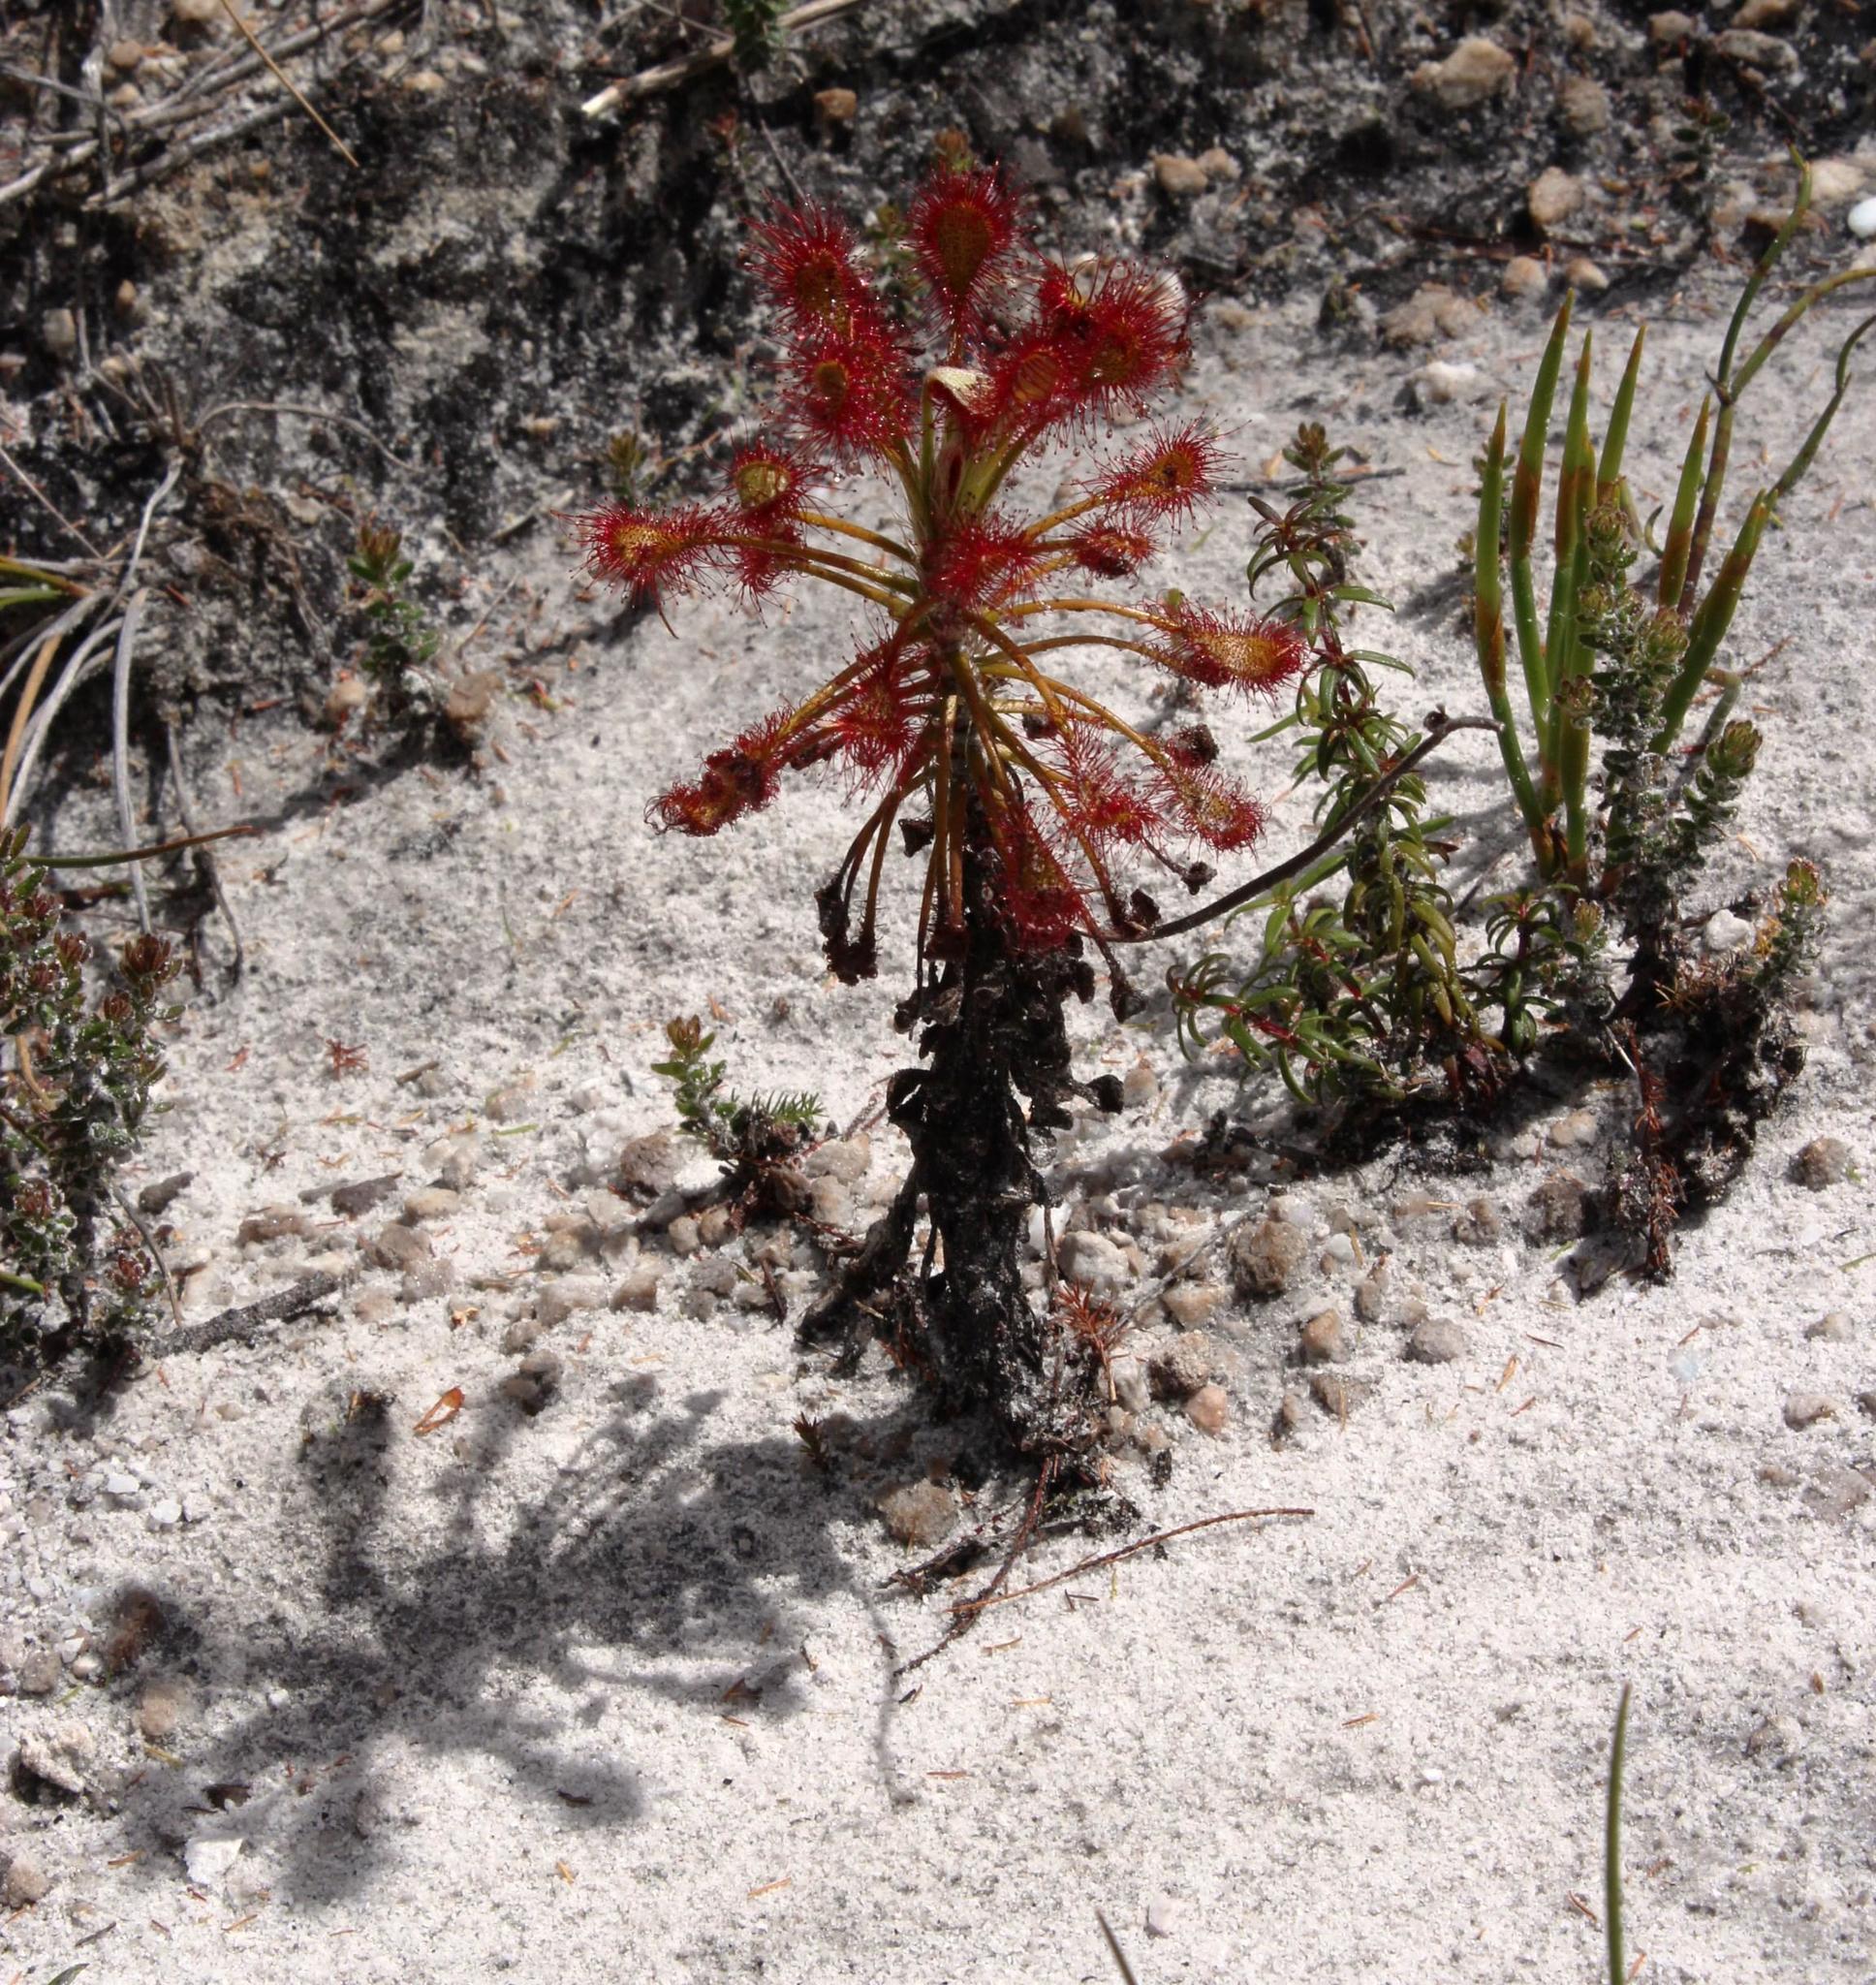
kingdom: Plantae
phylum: Tracheophyta
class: Magnoliopsida
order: Caryophyllales
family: Droseraceae
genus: Drosera
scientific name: Drosera glabripes
